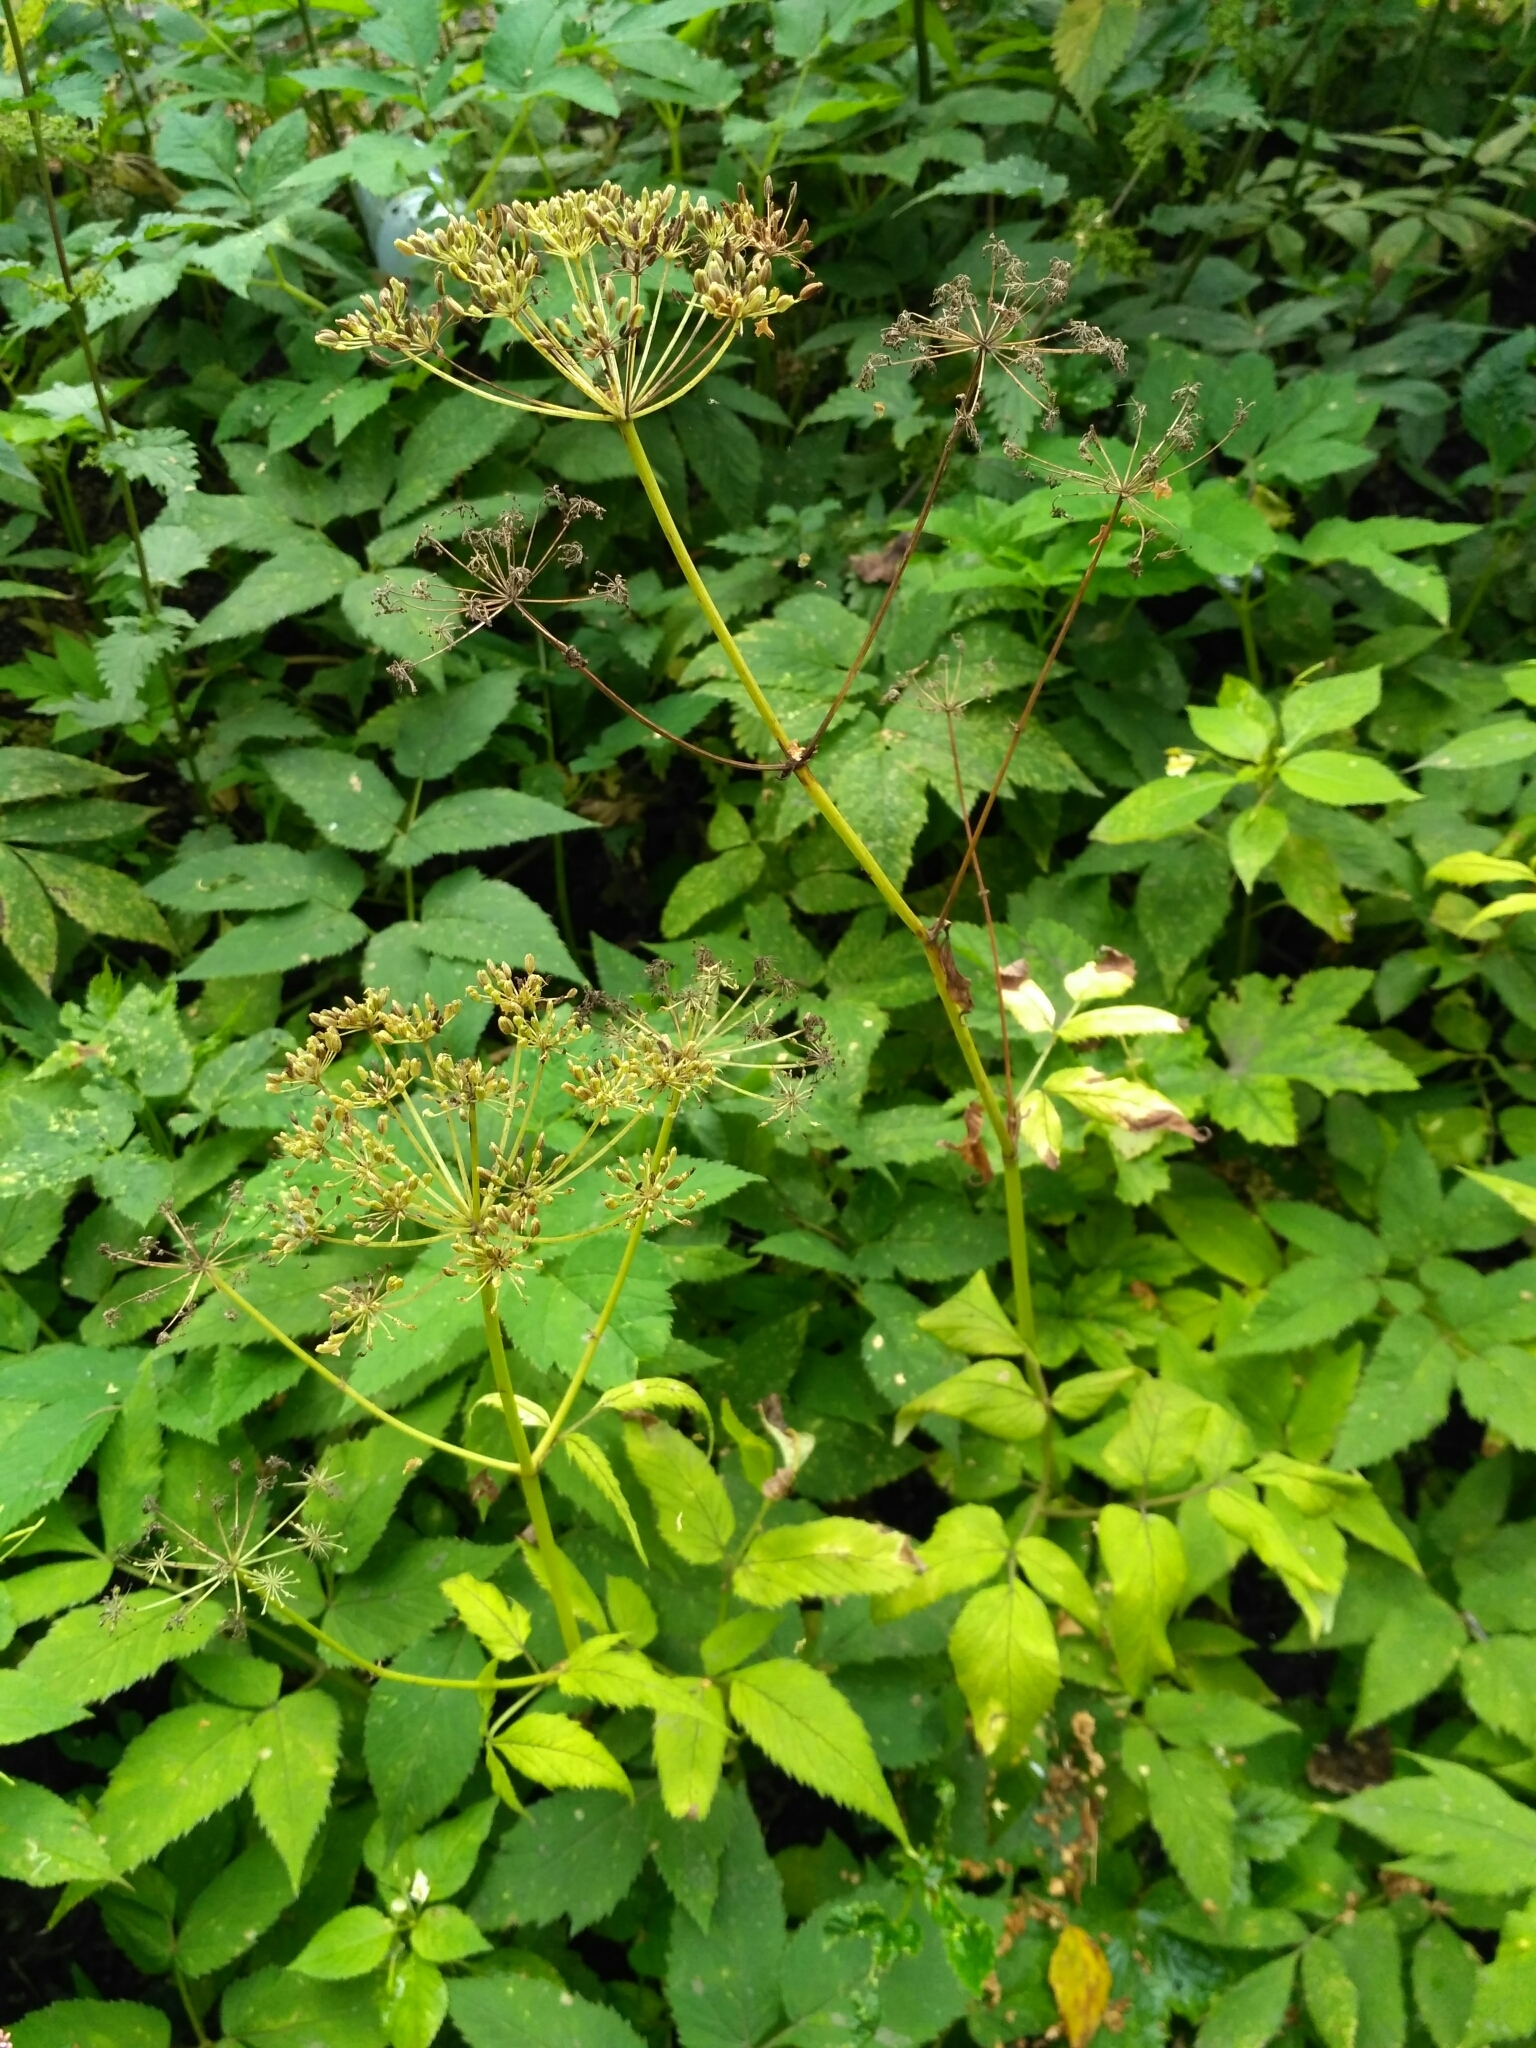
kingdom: Plantae
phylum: Tracheophyta
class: Magnoliopsida
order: Apiales
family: Apiaceae
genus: Aegopodium
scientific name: Aegopodium podagraria
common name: Ground-elder
